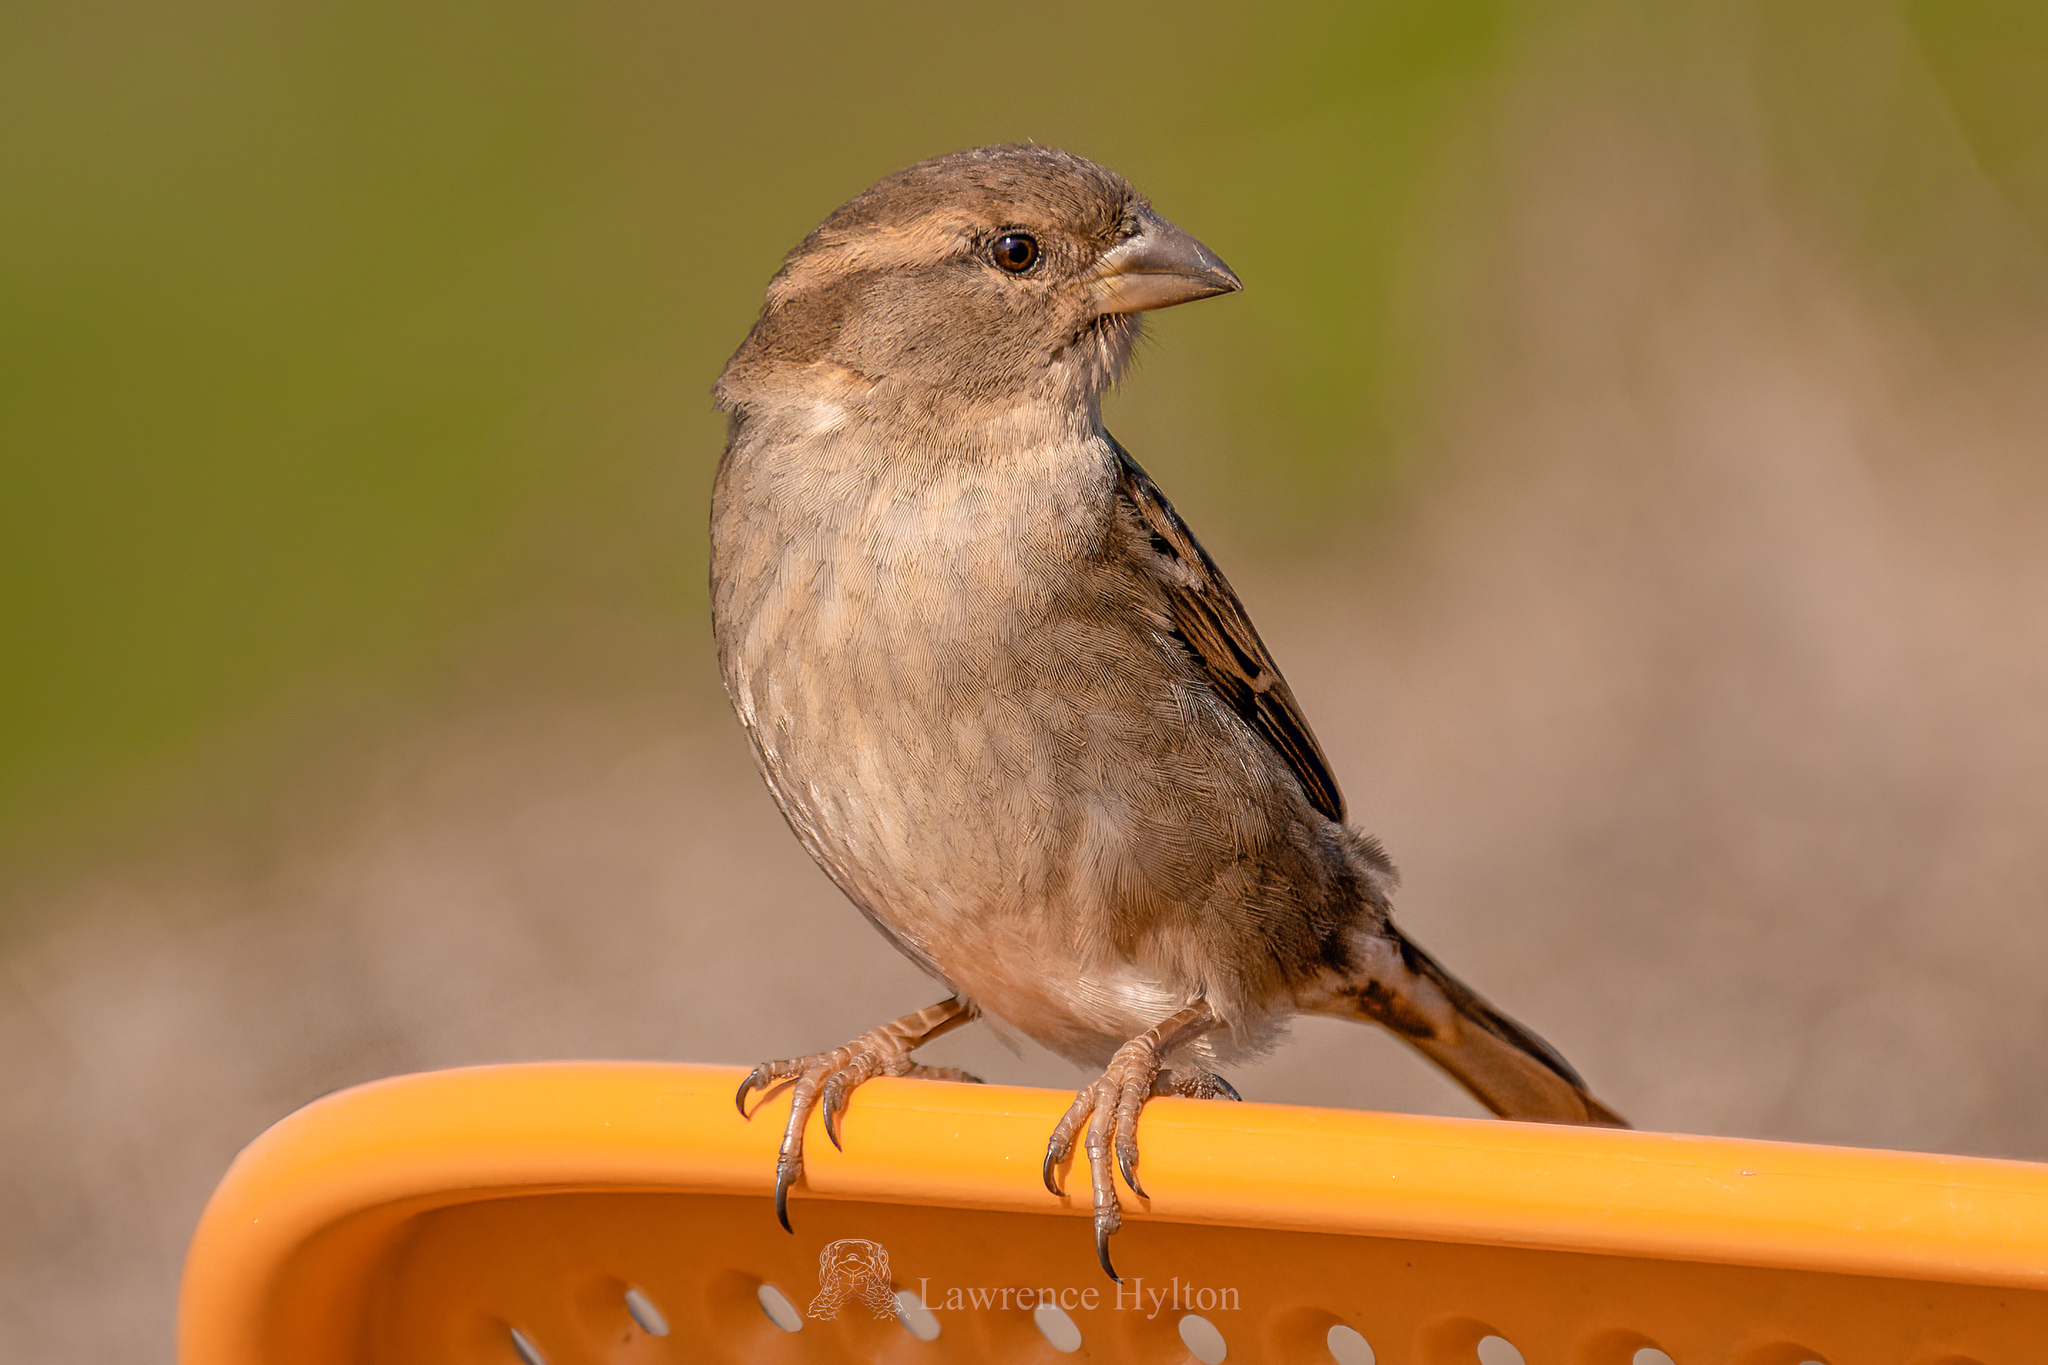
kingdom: Animalia
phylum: Chordata
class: Aves
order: Passeriformes
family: Passeridae
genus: Passer
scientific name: Passer domesticus
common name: House sparrow
